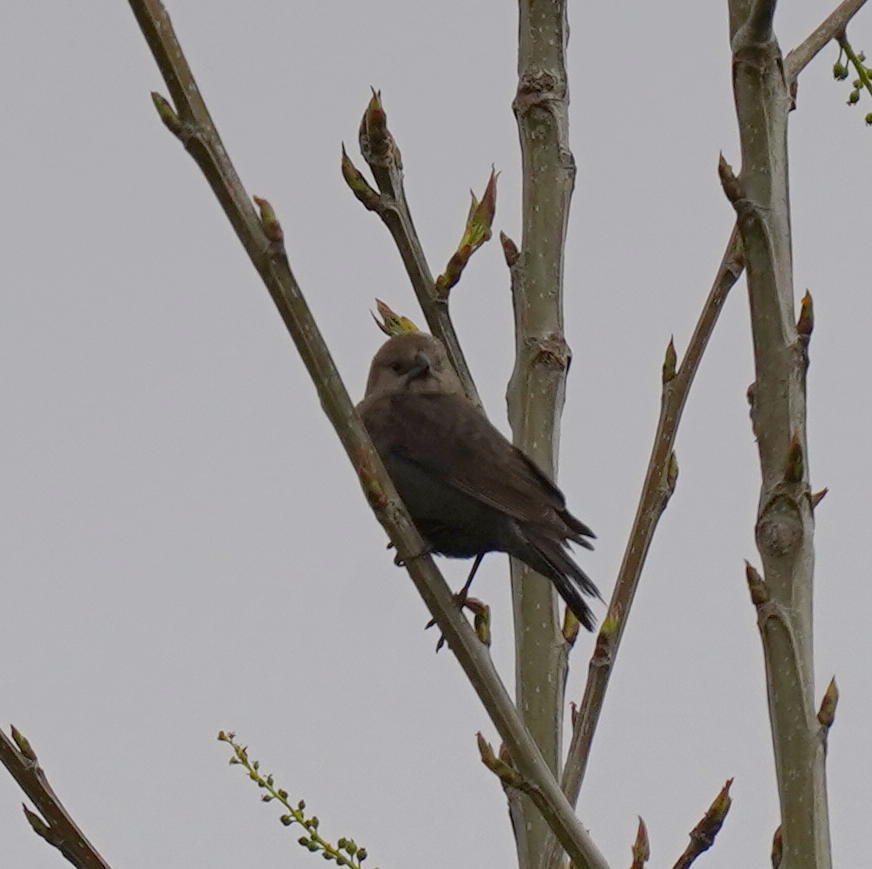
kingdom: Animalia
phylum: Chordata
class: Aves
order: Passeriformes
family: Icteridae
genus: Molothrus
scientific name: Molothrus ater
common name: Brown-headed cowbird
